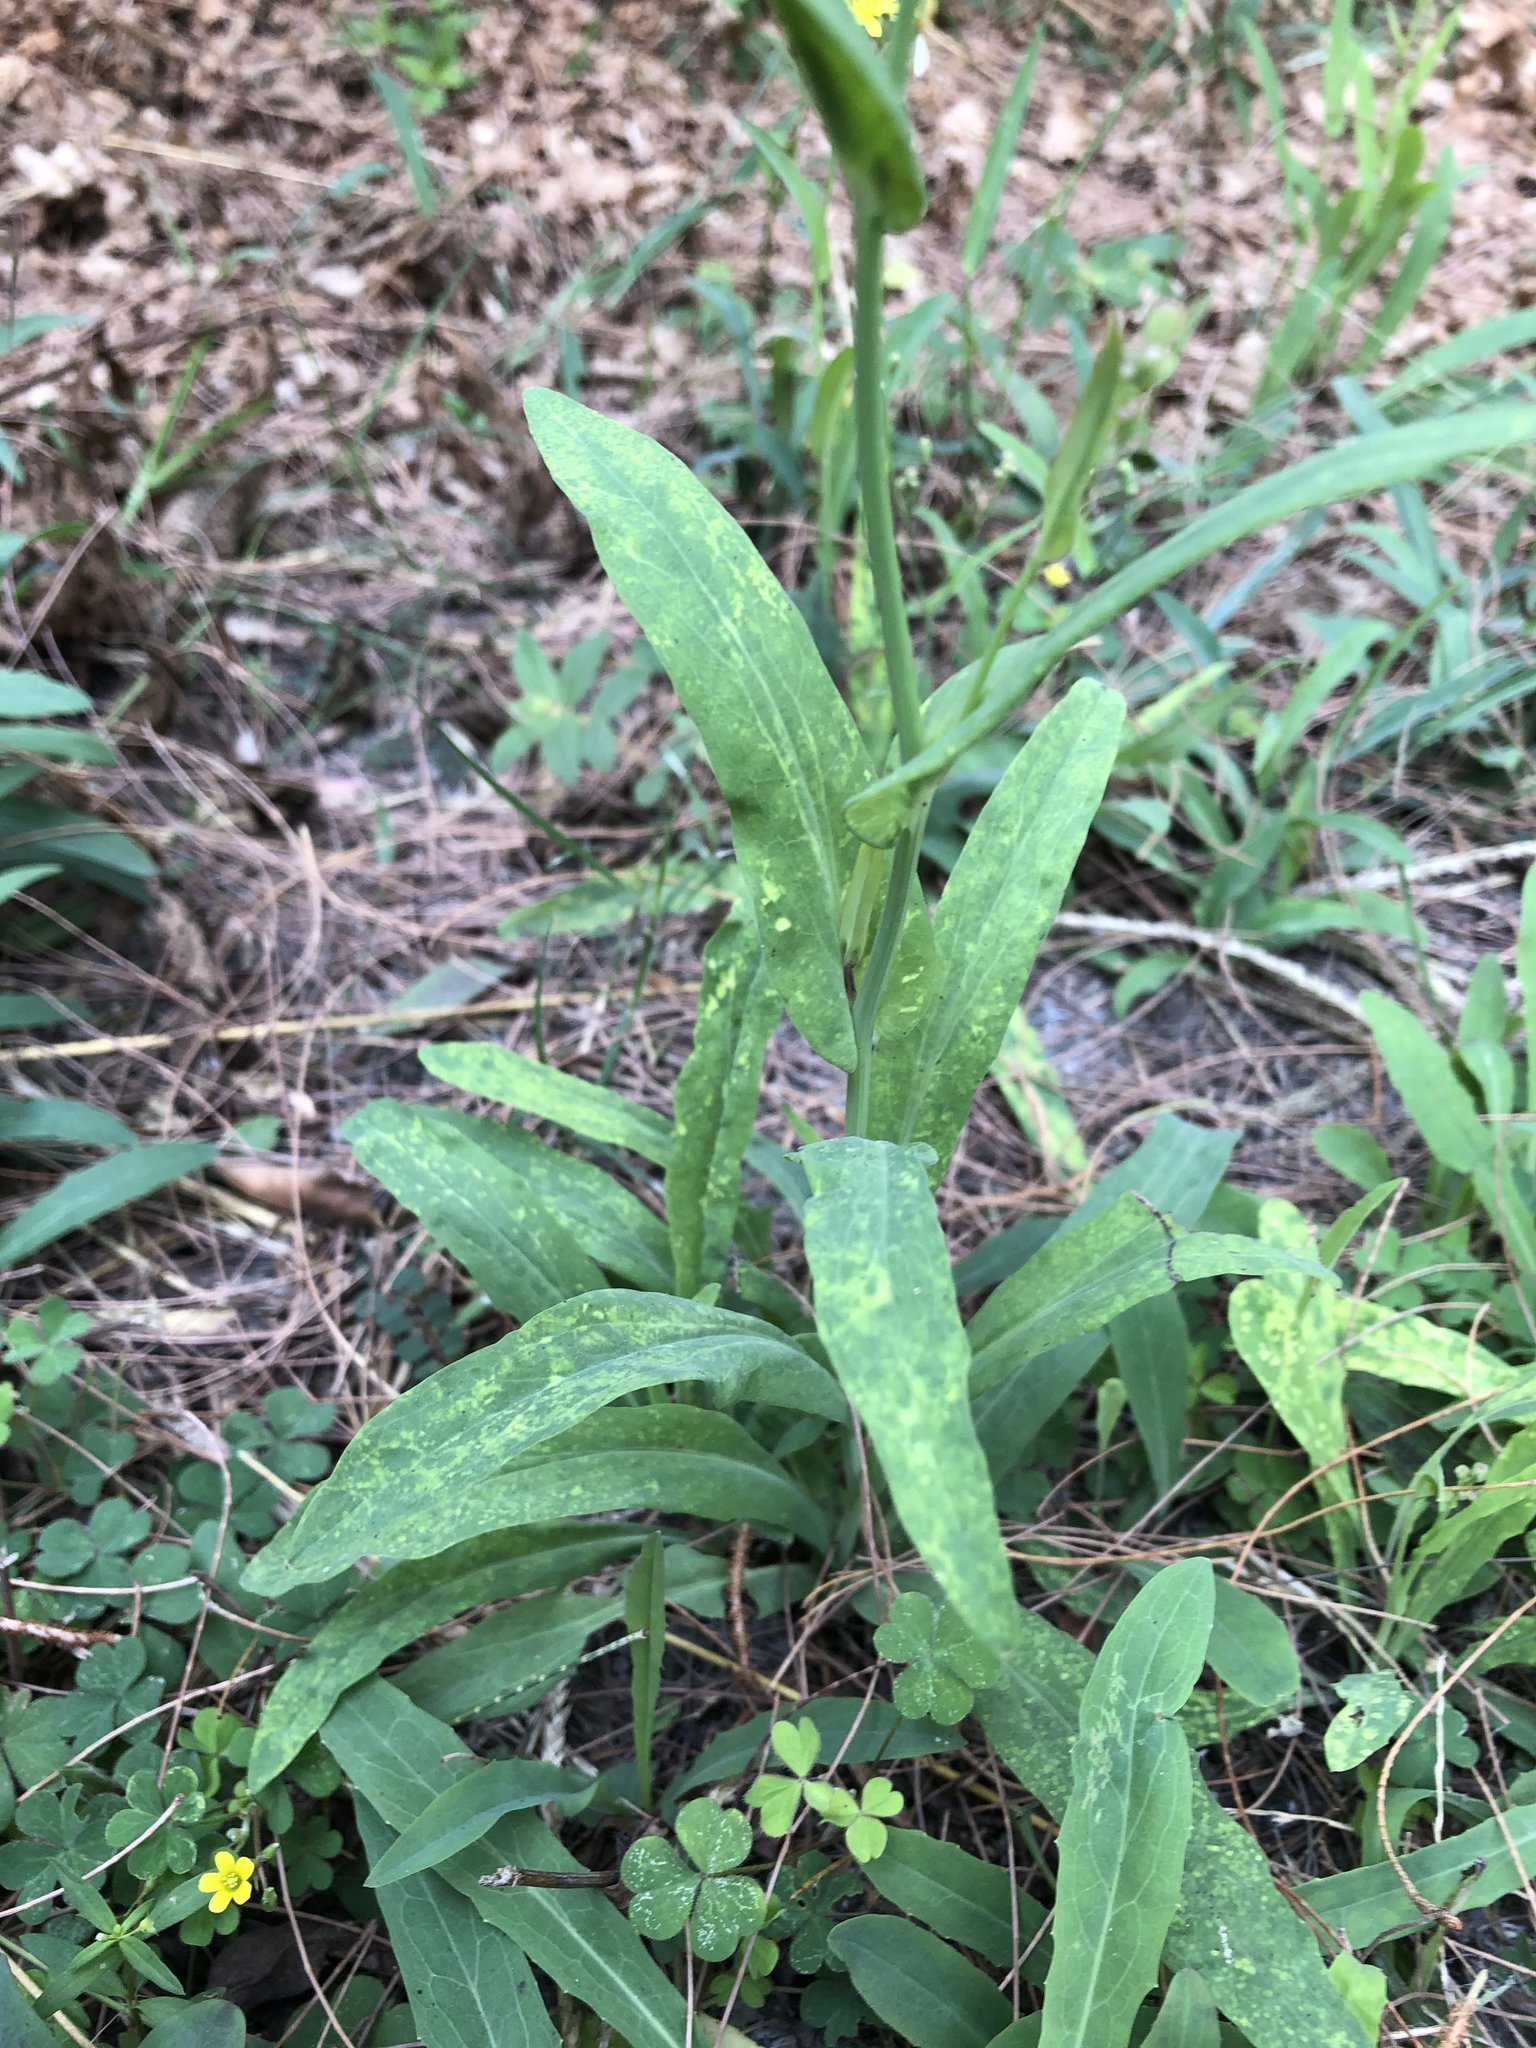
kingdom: Plantae
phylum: Tracheophyta
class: Magnoliopsida
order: Asterales
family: Asteraceae
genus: Ixeris
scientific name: Ixeris chinensis
